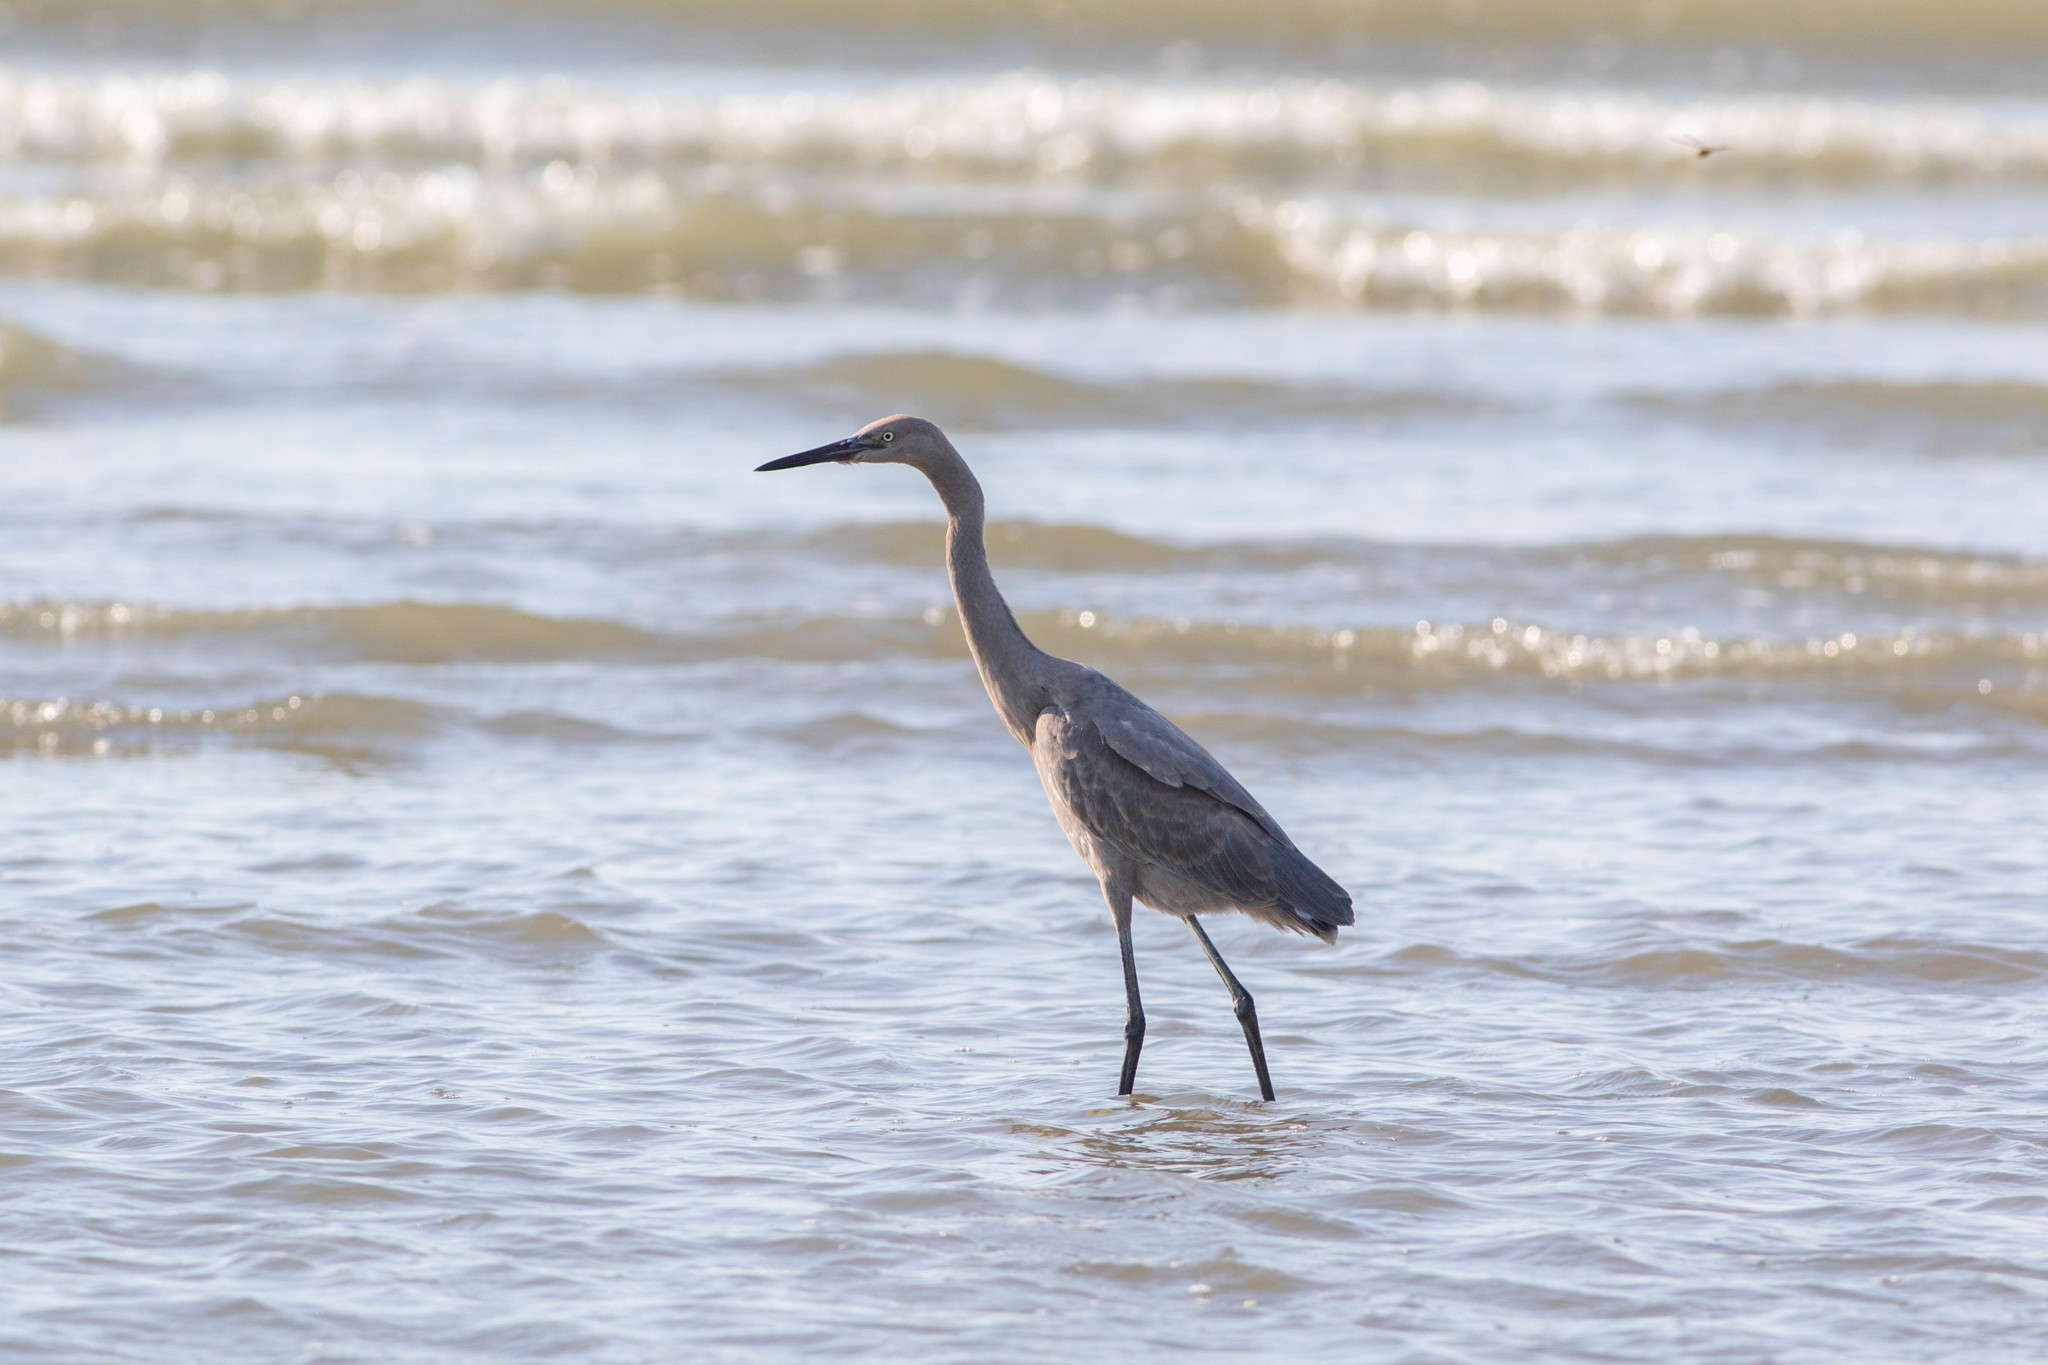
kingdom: Animalia
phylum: Chordata
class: Aves
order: Pelecaniformes
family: Ardeidae
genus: Egretta
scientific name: Egretta rufescens
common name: Reddish egret
